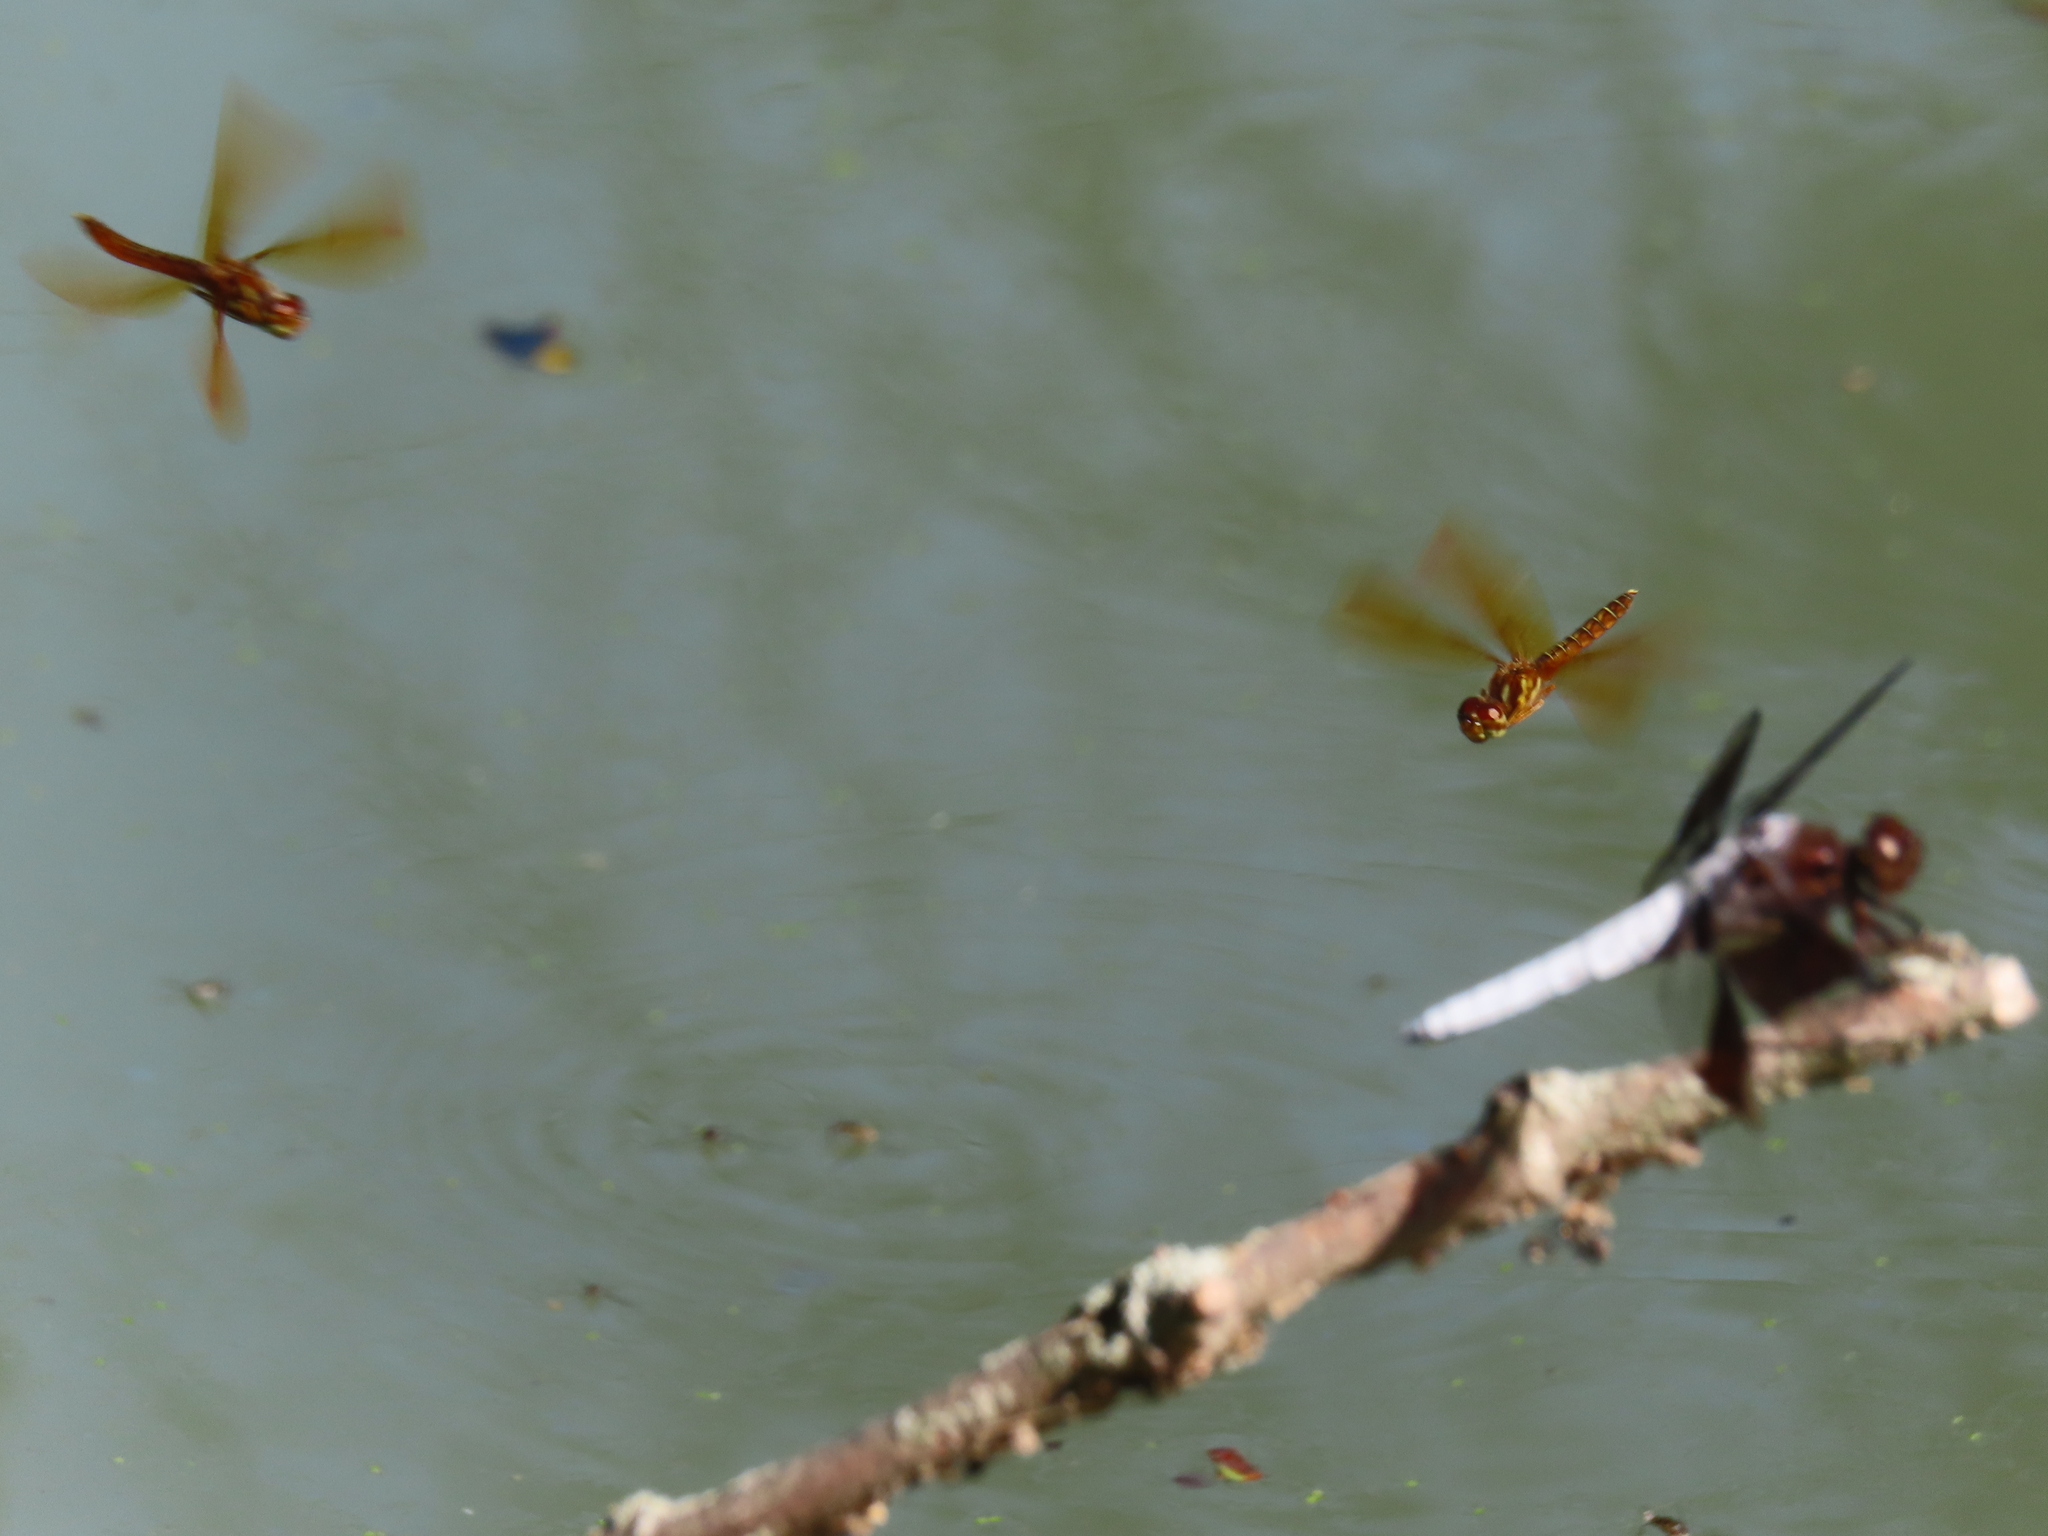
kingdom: Animalia
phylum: Arthropoda
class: Insecta
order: Odonata
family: Libellulidae
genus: Perithemis
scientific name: Perithemis tenera
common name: Eastern amberwing
